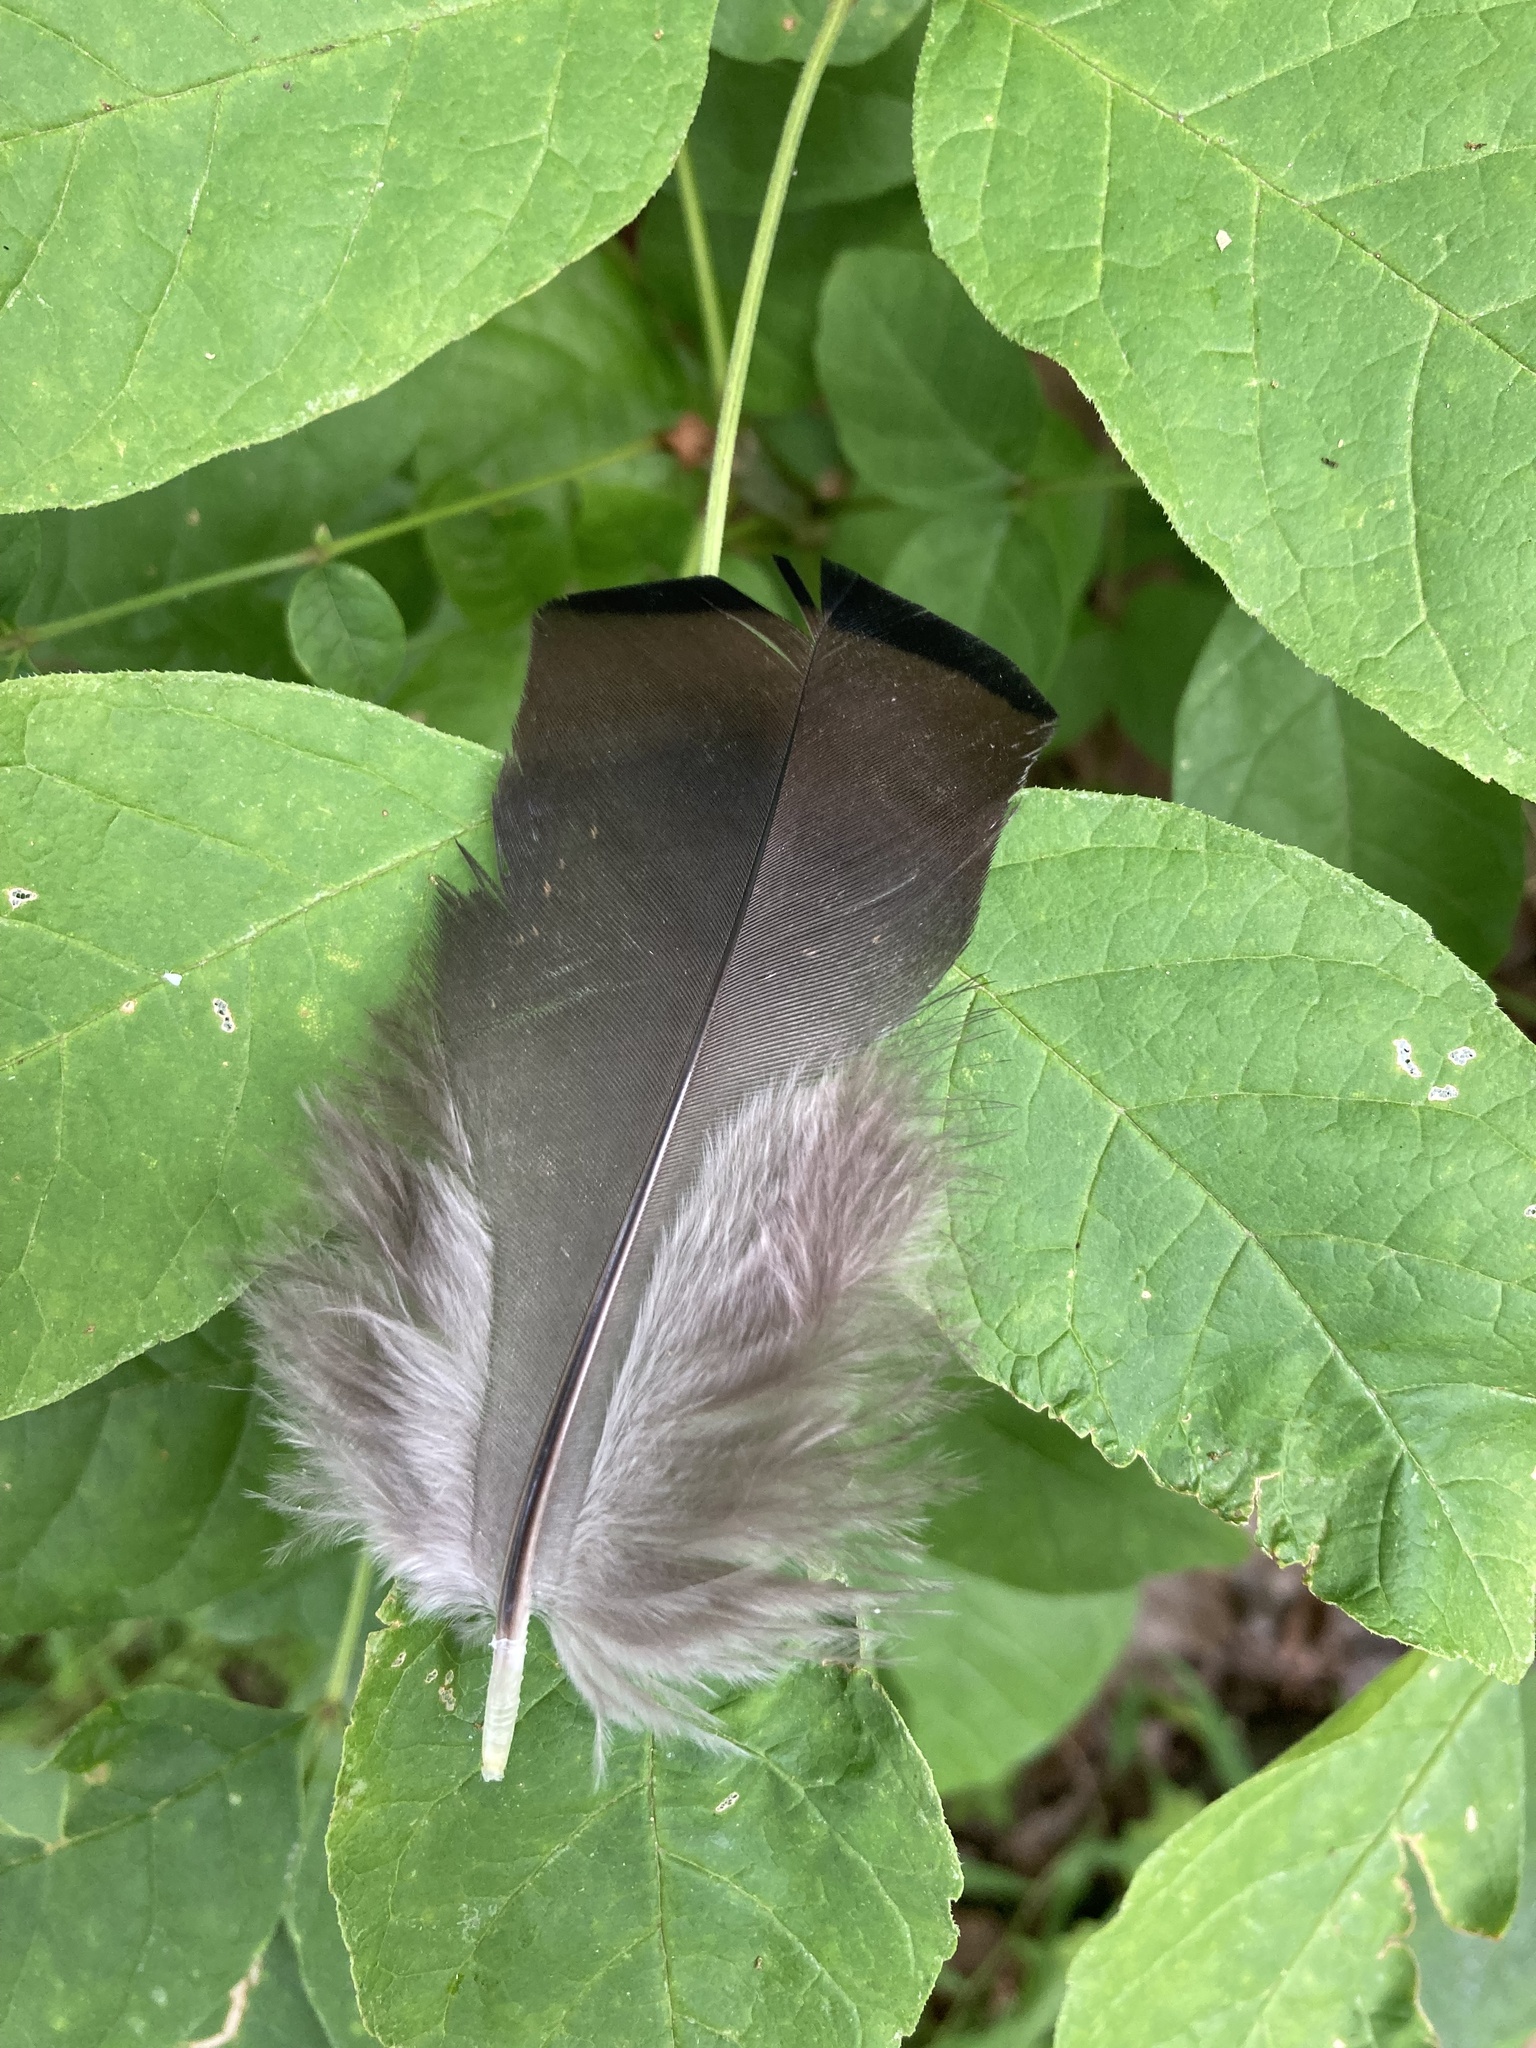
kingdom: Animalia
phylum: Chordata
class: Aves
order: Galliformes
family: Phasianidae
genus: Meleagris
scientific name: Meleagris gallopavo
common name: Wild turkey
